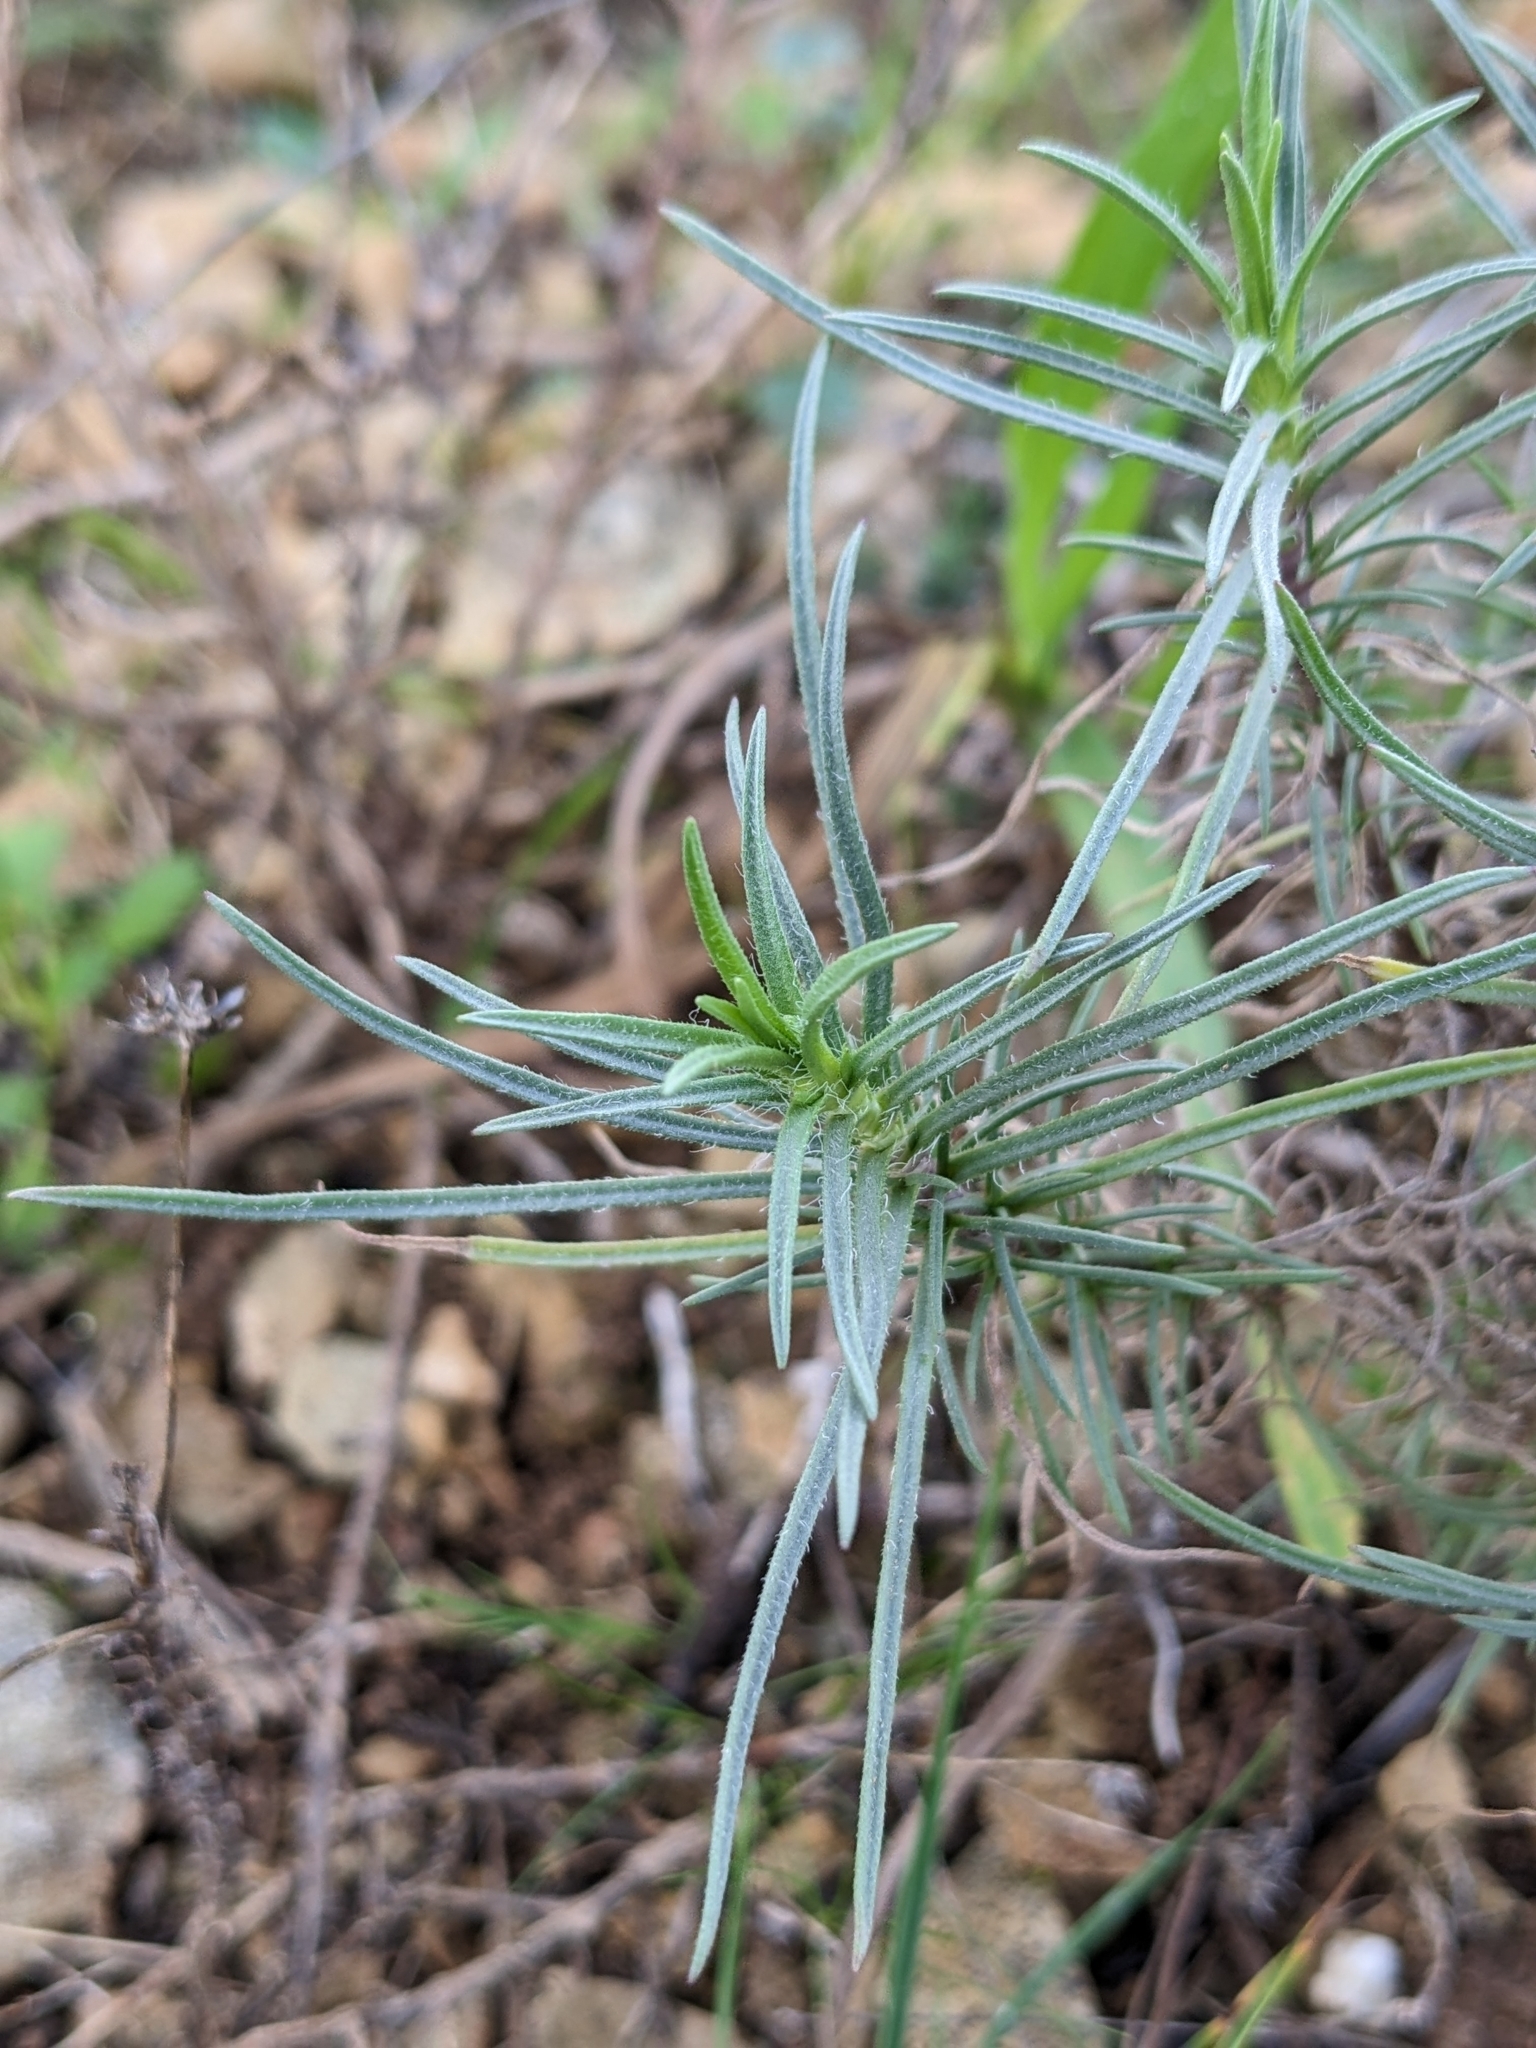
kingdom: Plantae
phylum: Tracheophyta
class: Magnoliopsida
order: Lamiales
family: Plantaginaceae
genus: Plantago
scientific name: Plantago sempervirens
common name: Shrubby plantain
